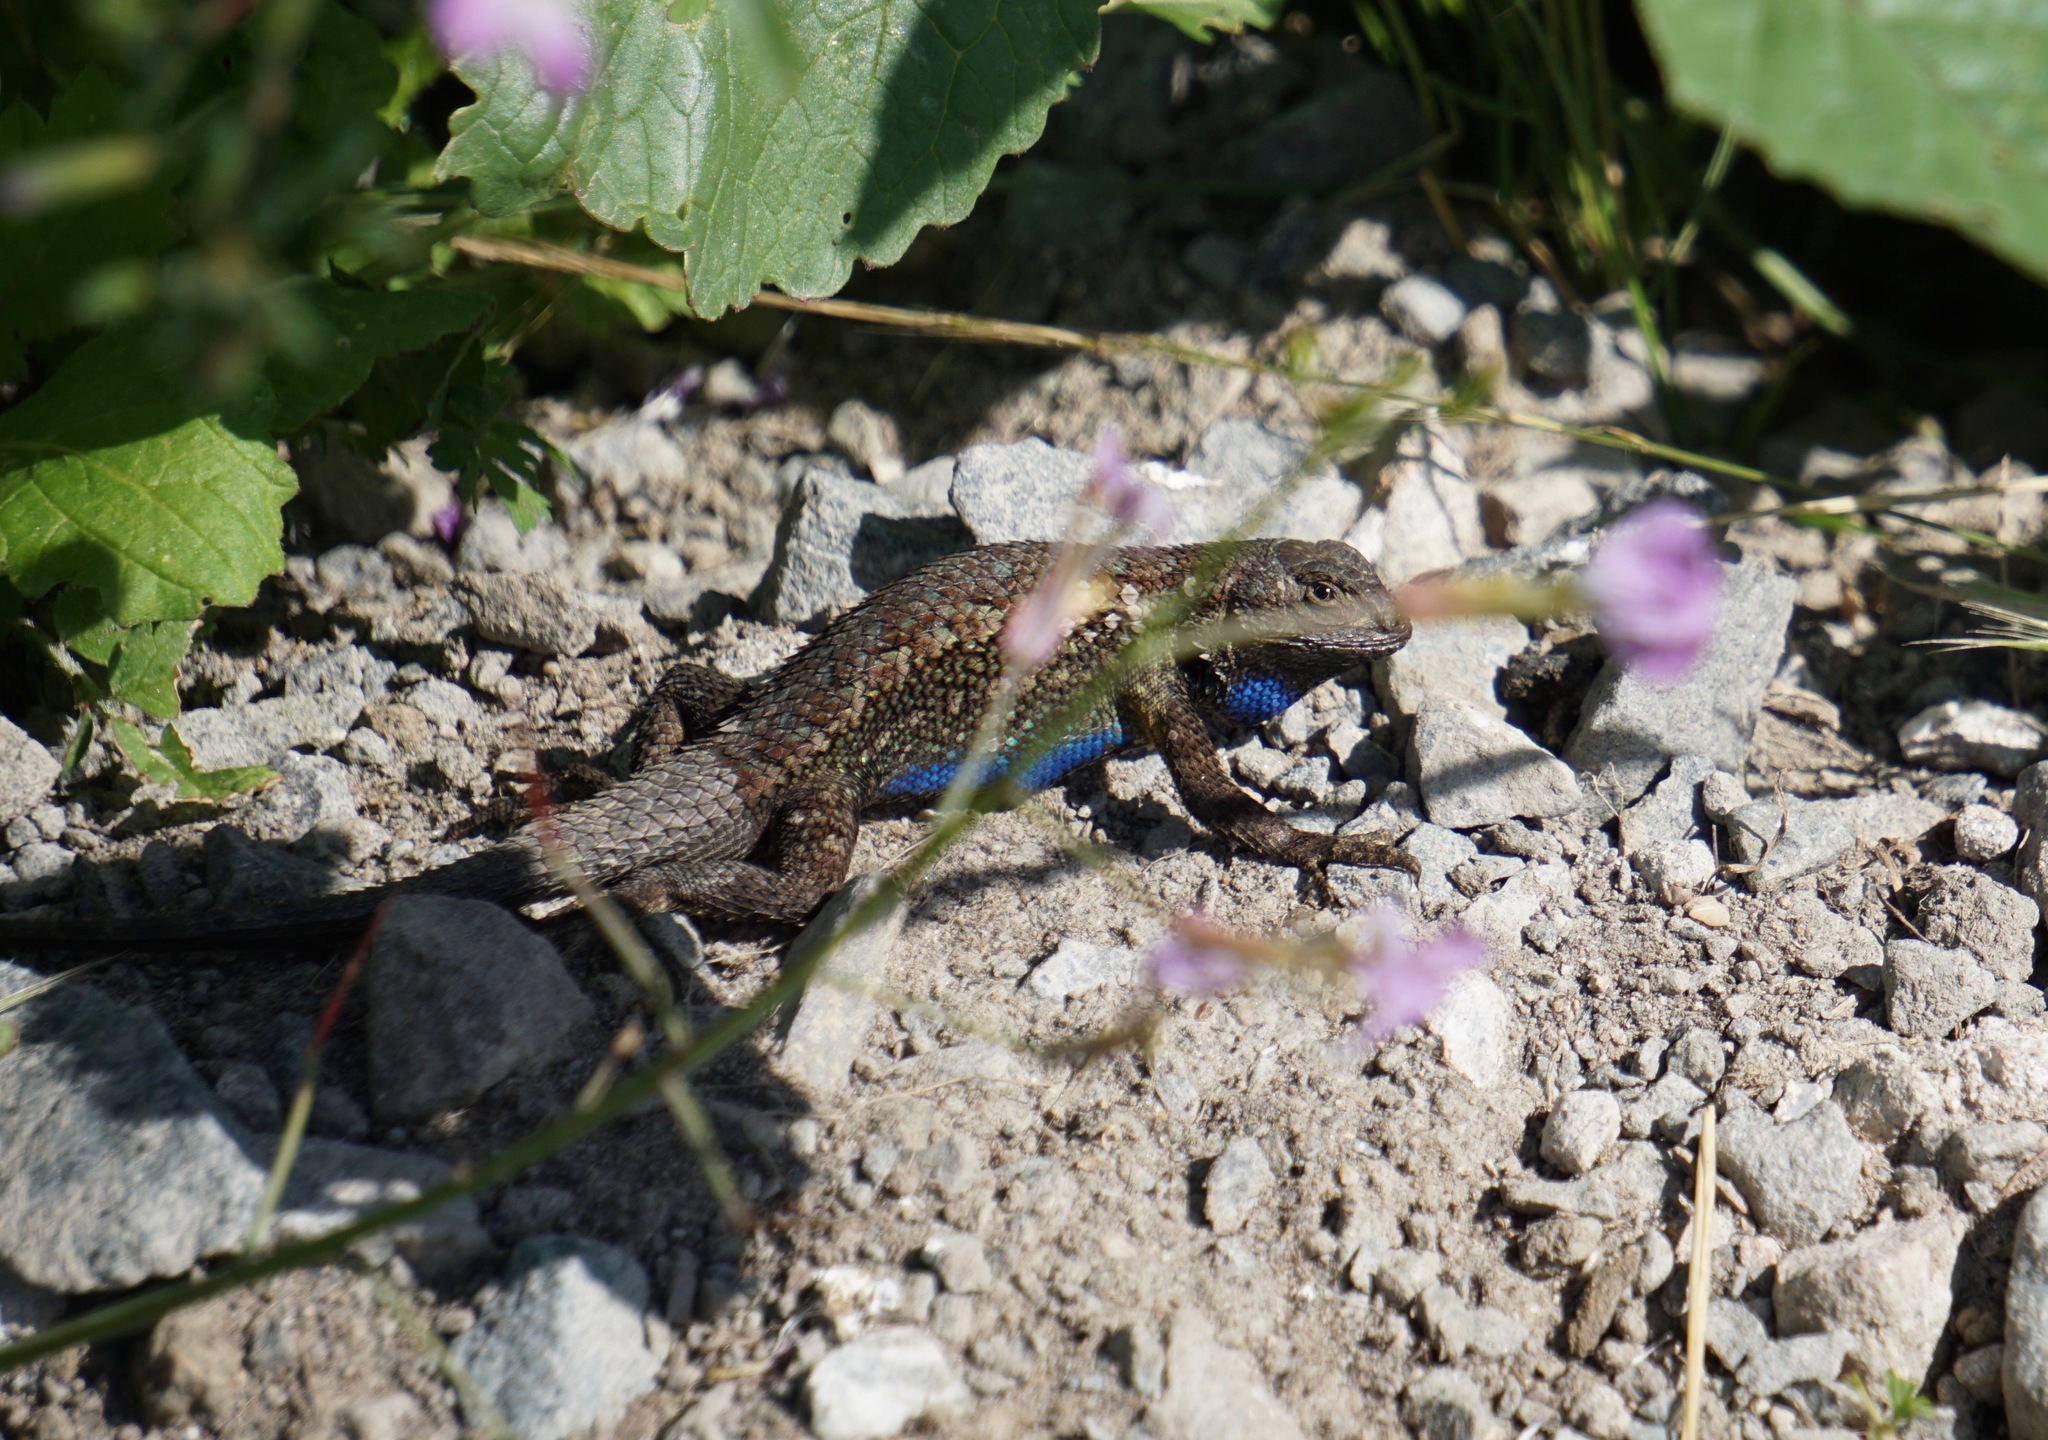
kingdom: Animalia
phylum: Chordata
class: Squamata
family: Phrynosomatidae
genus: Sceloporus
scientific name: Sceloporus occidentalis
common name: Western fence lizard
